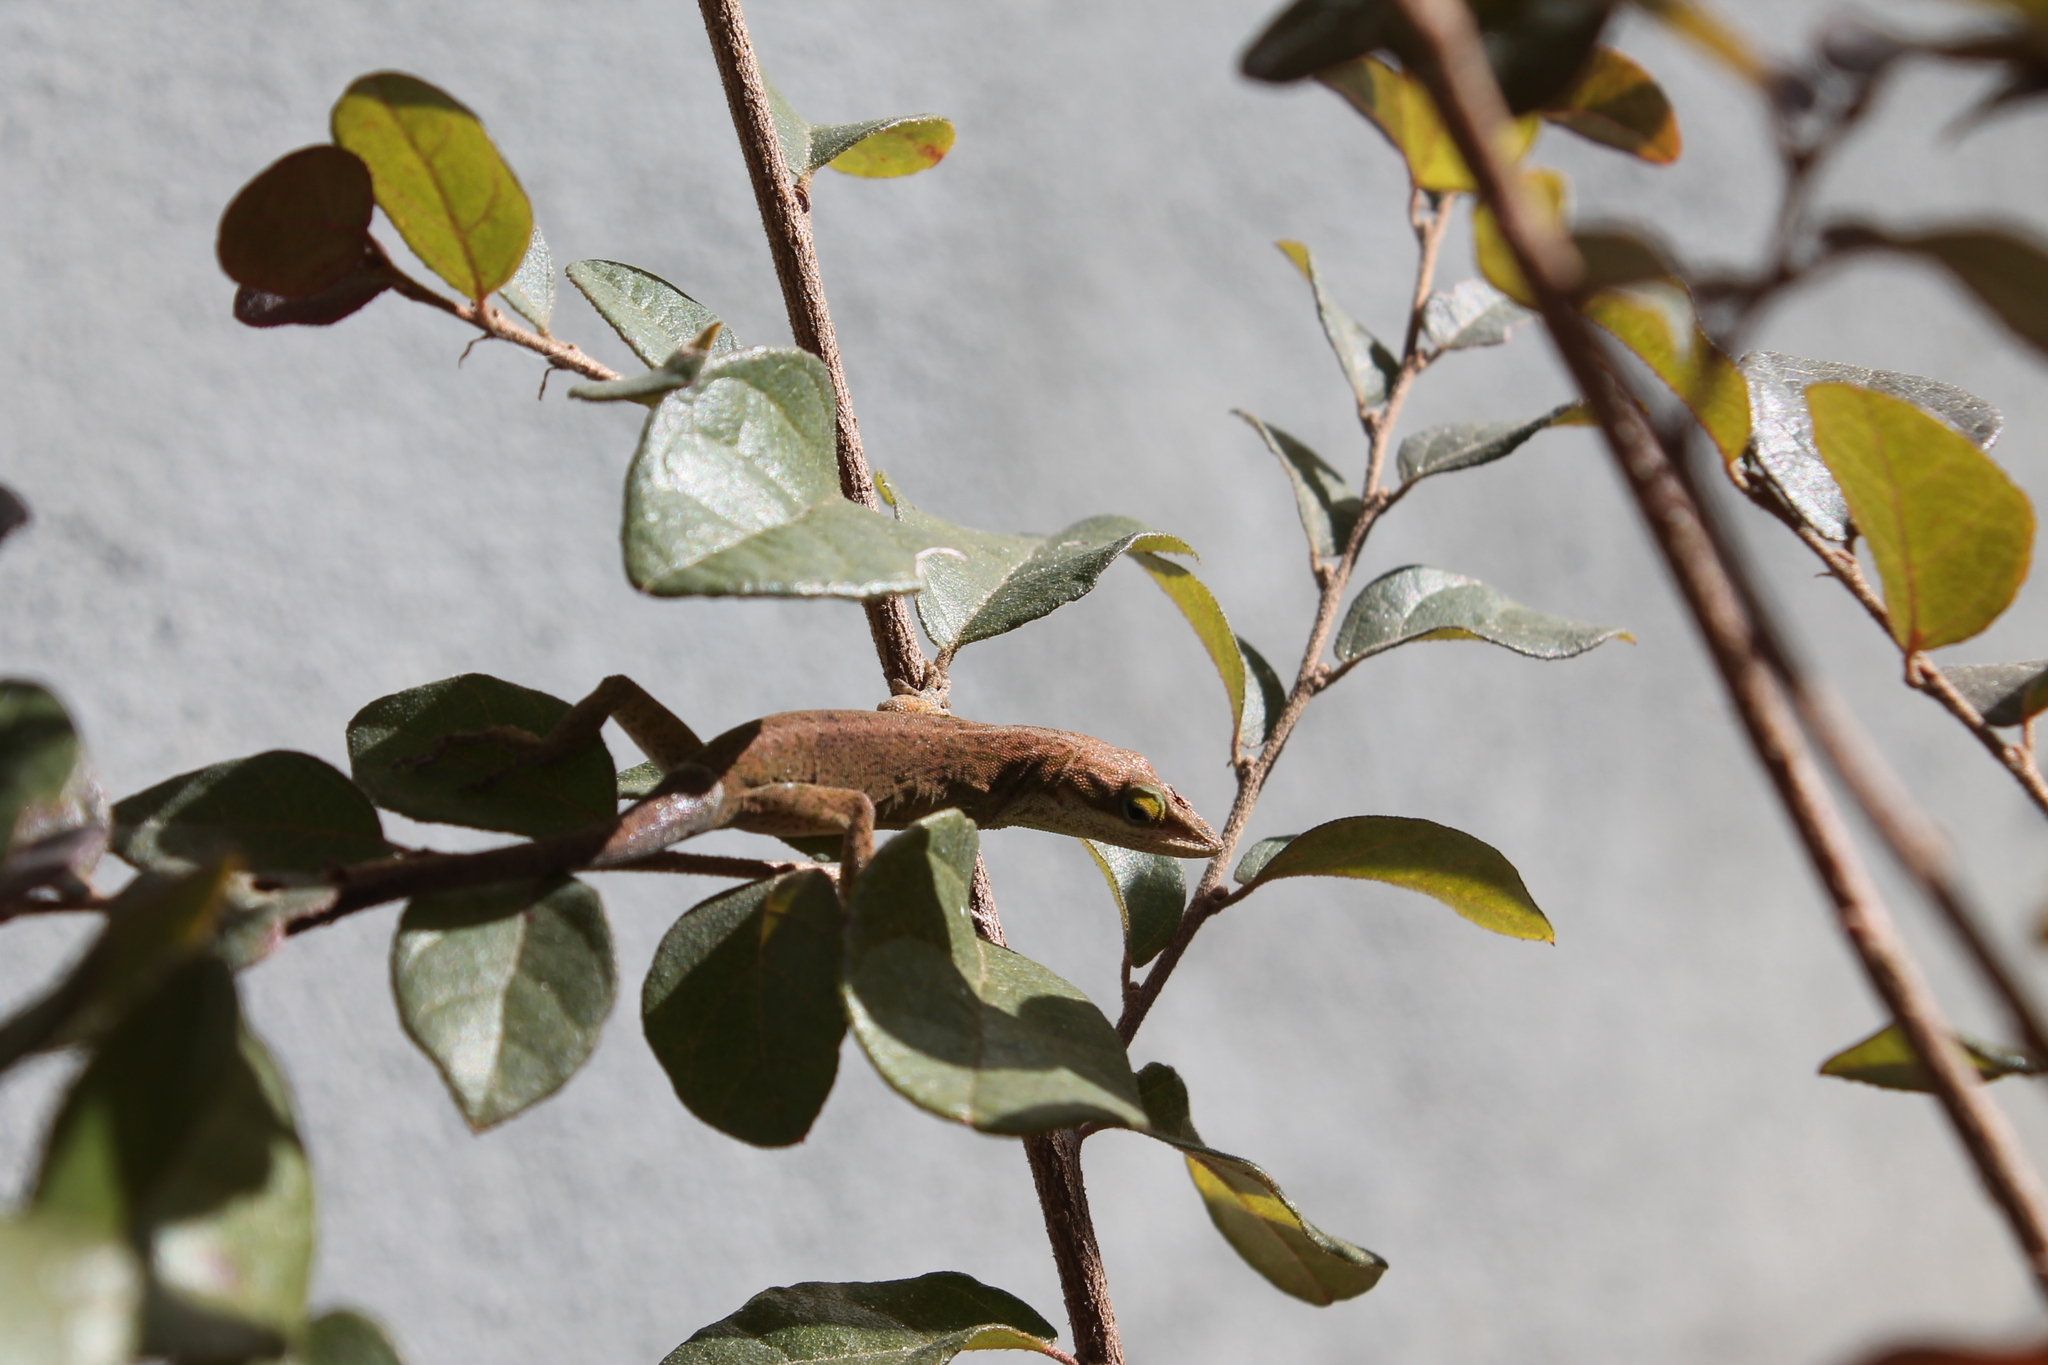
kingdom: Animalia
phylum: Chordata
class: Squamata
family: Dactyloidae
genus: Anolis
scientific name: Anolis carolinensis
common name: Green anole
